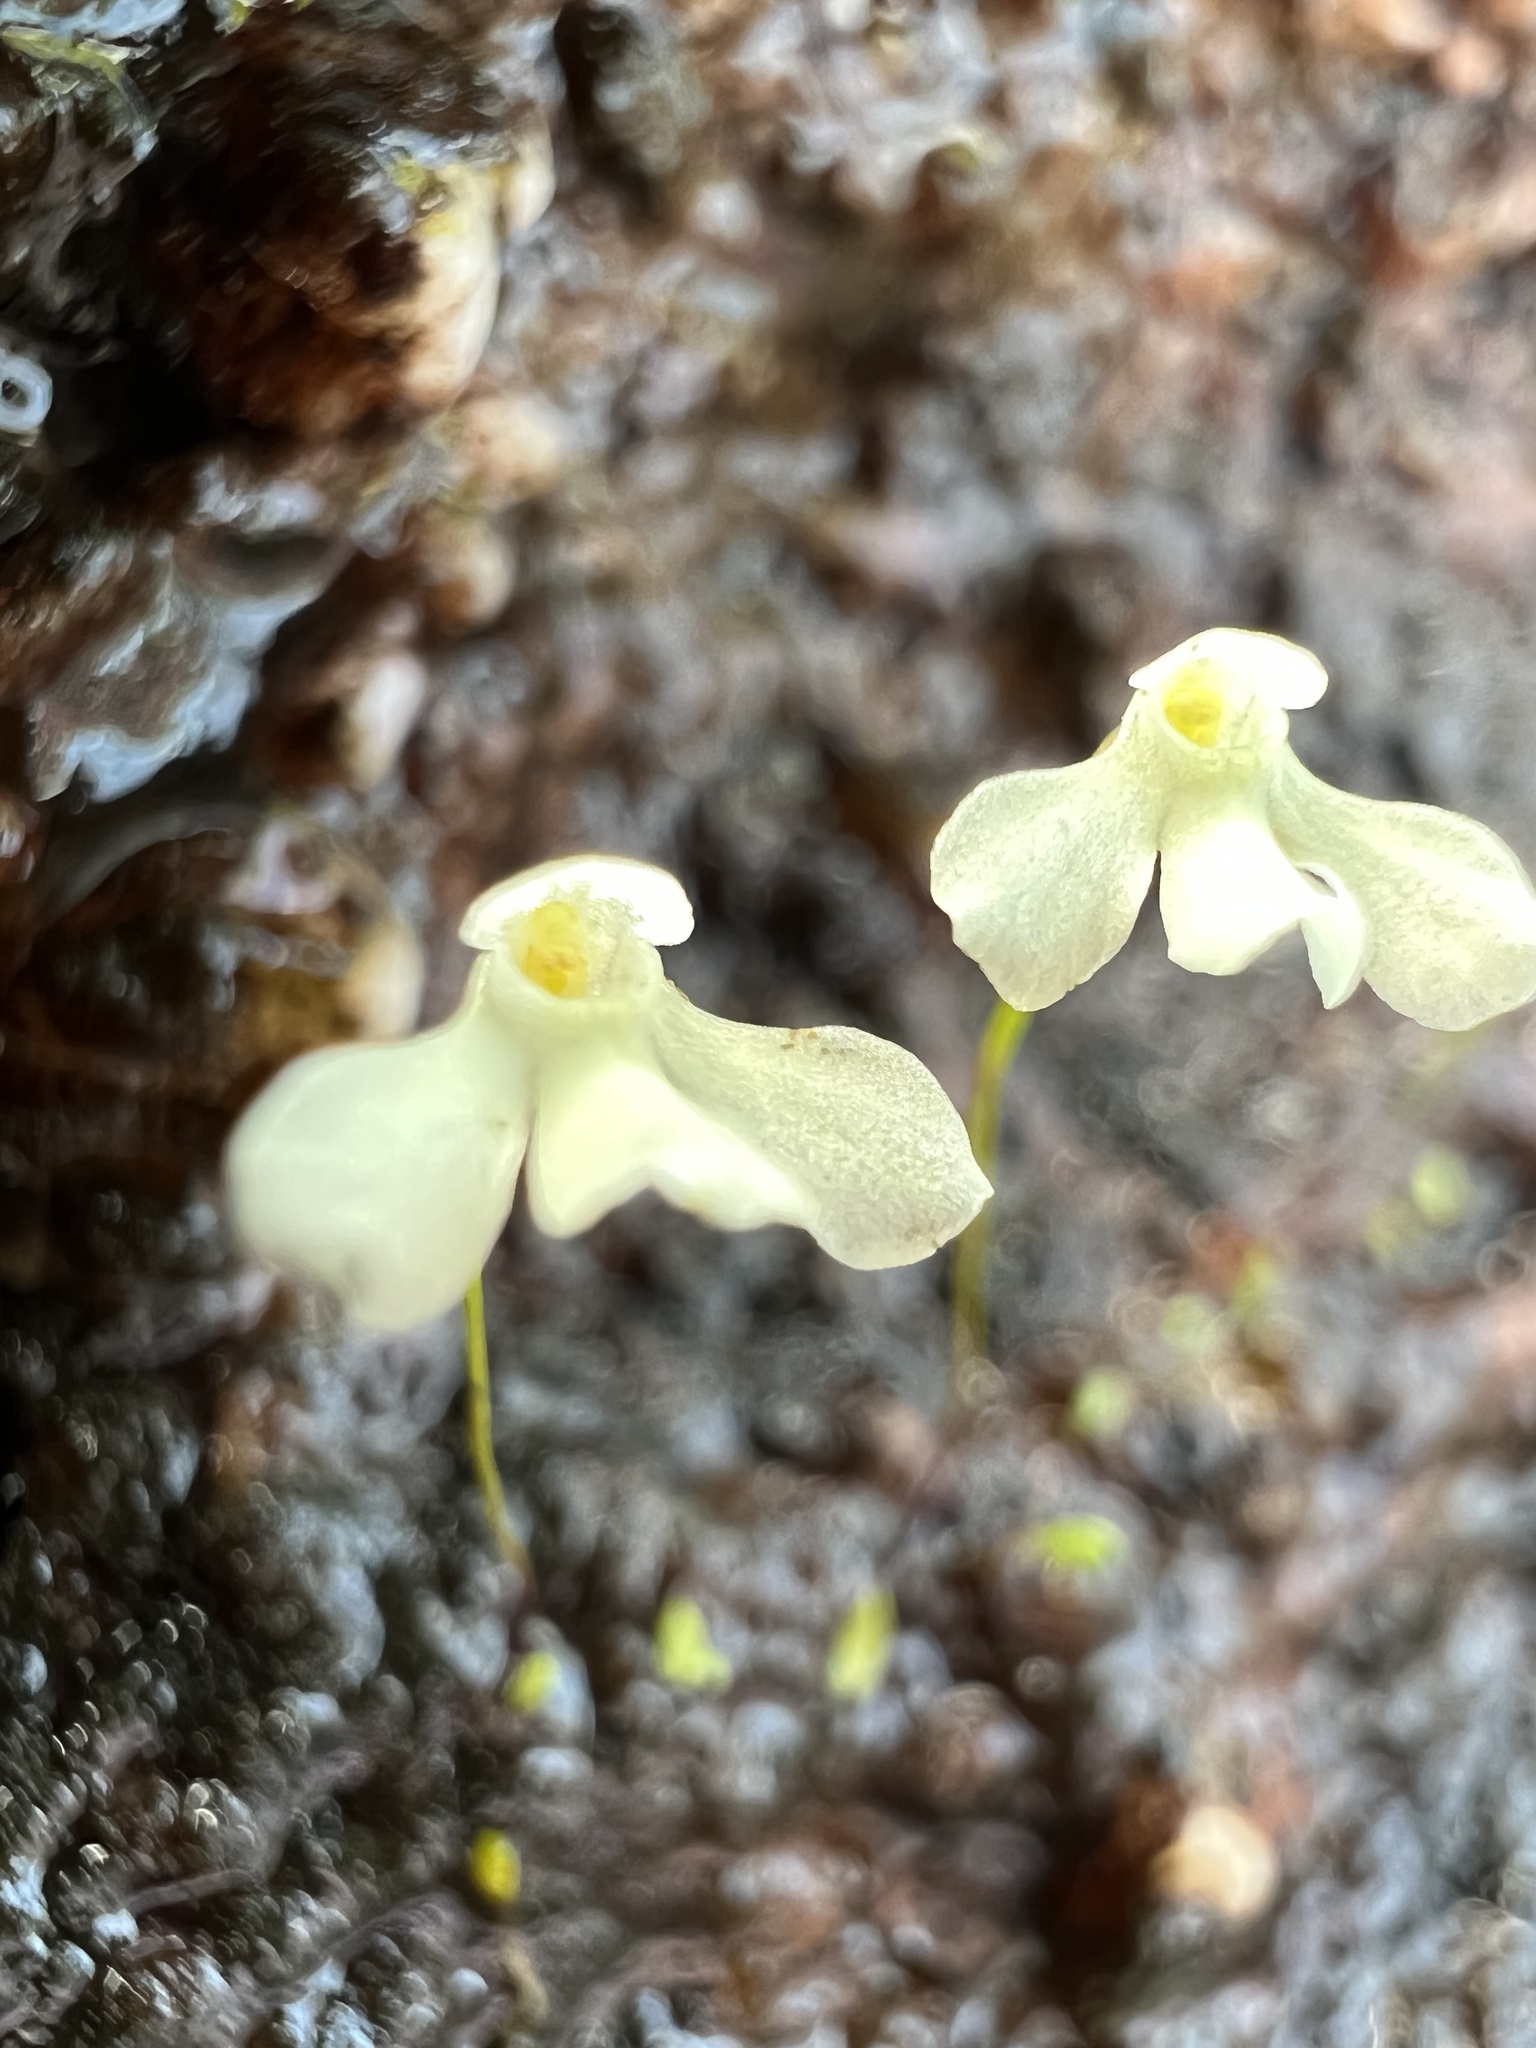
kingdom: Plantae
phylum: Tracheophyta
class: Magnoliopsida
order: Lamiales
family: Lentibulariaceae
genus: Utricularia
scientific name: Utricularia oliveriana
